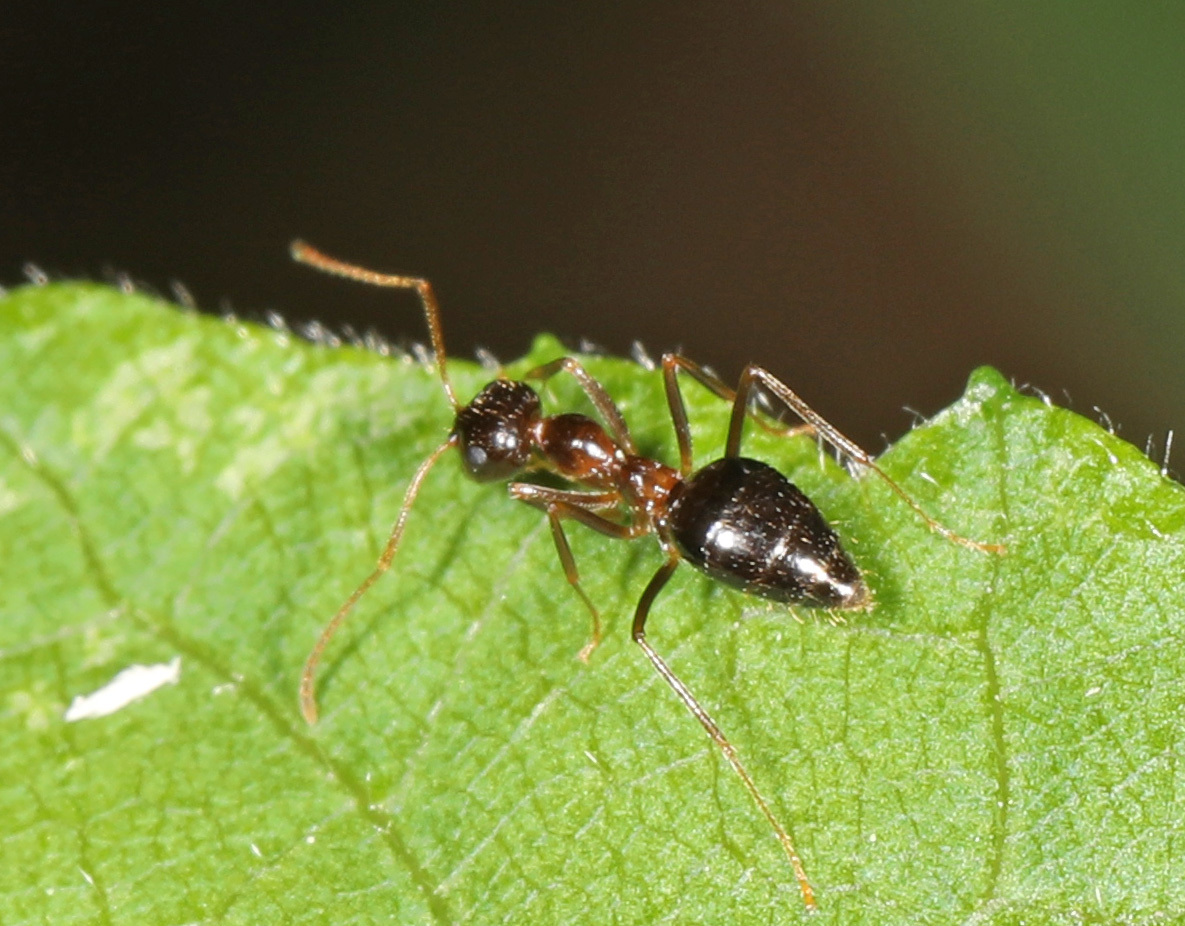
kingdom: Animalia
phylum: Arthropoda
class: Insecta
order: Hymenoptera
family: Formicidae
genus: Prenolepis
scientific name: Prenolepis imparis
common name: Small honey ant
